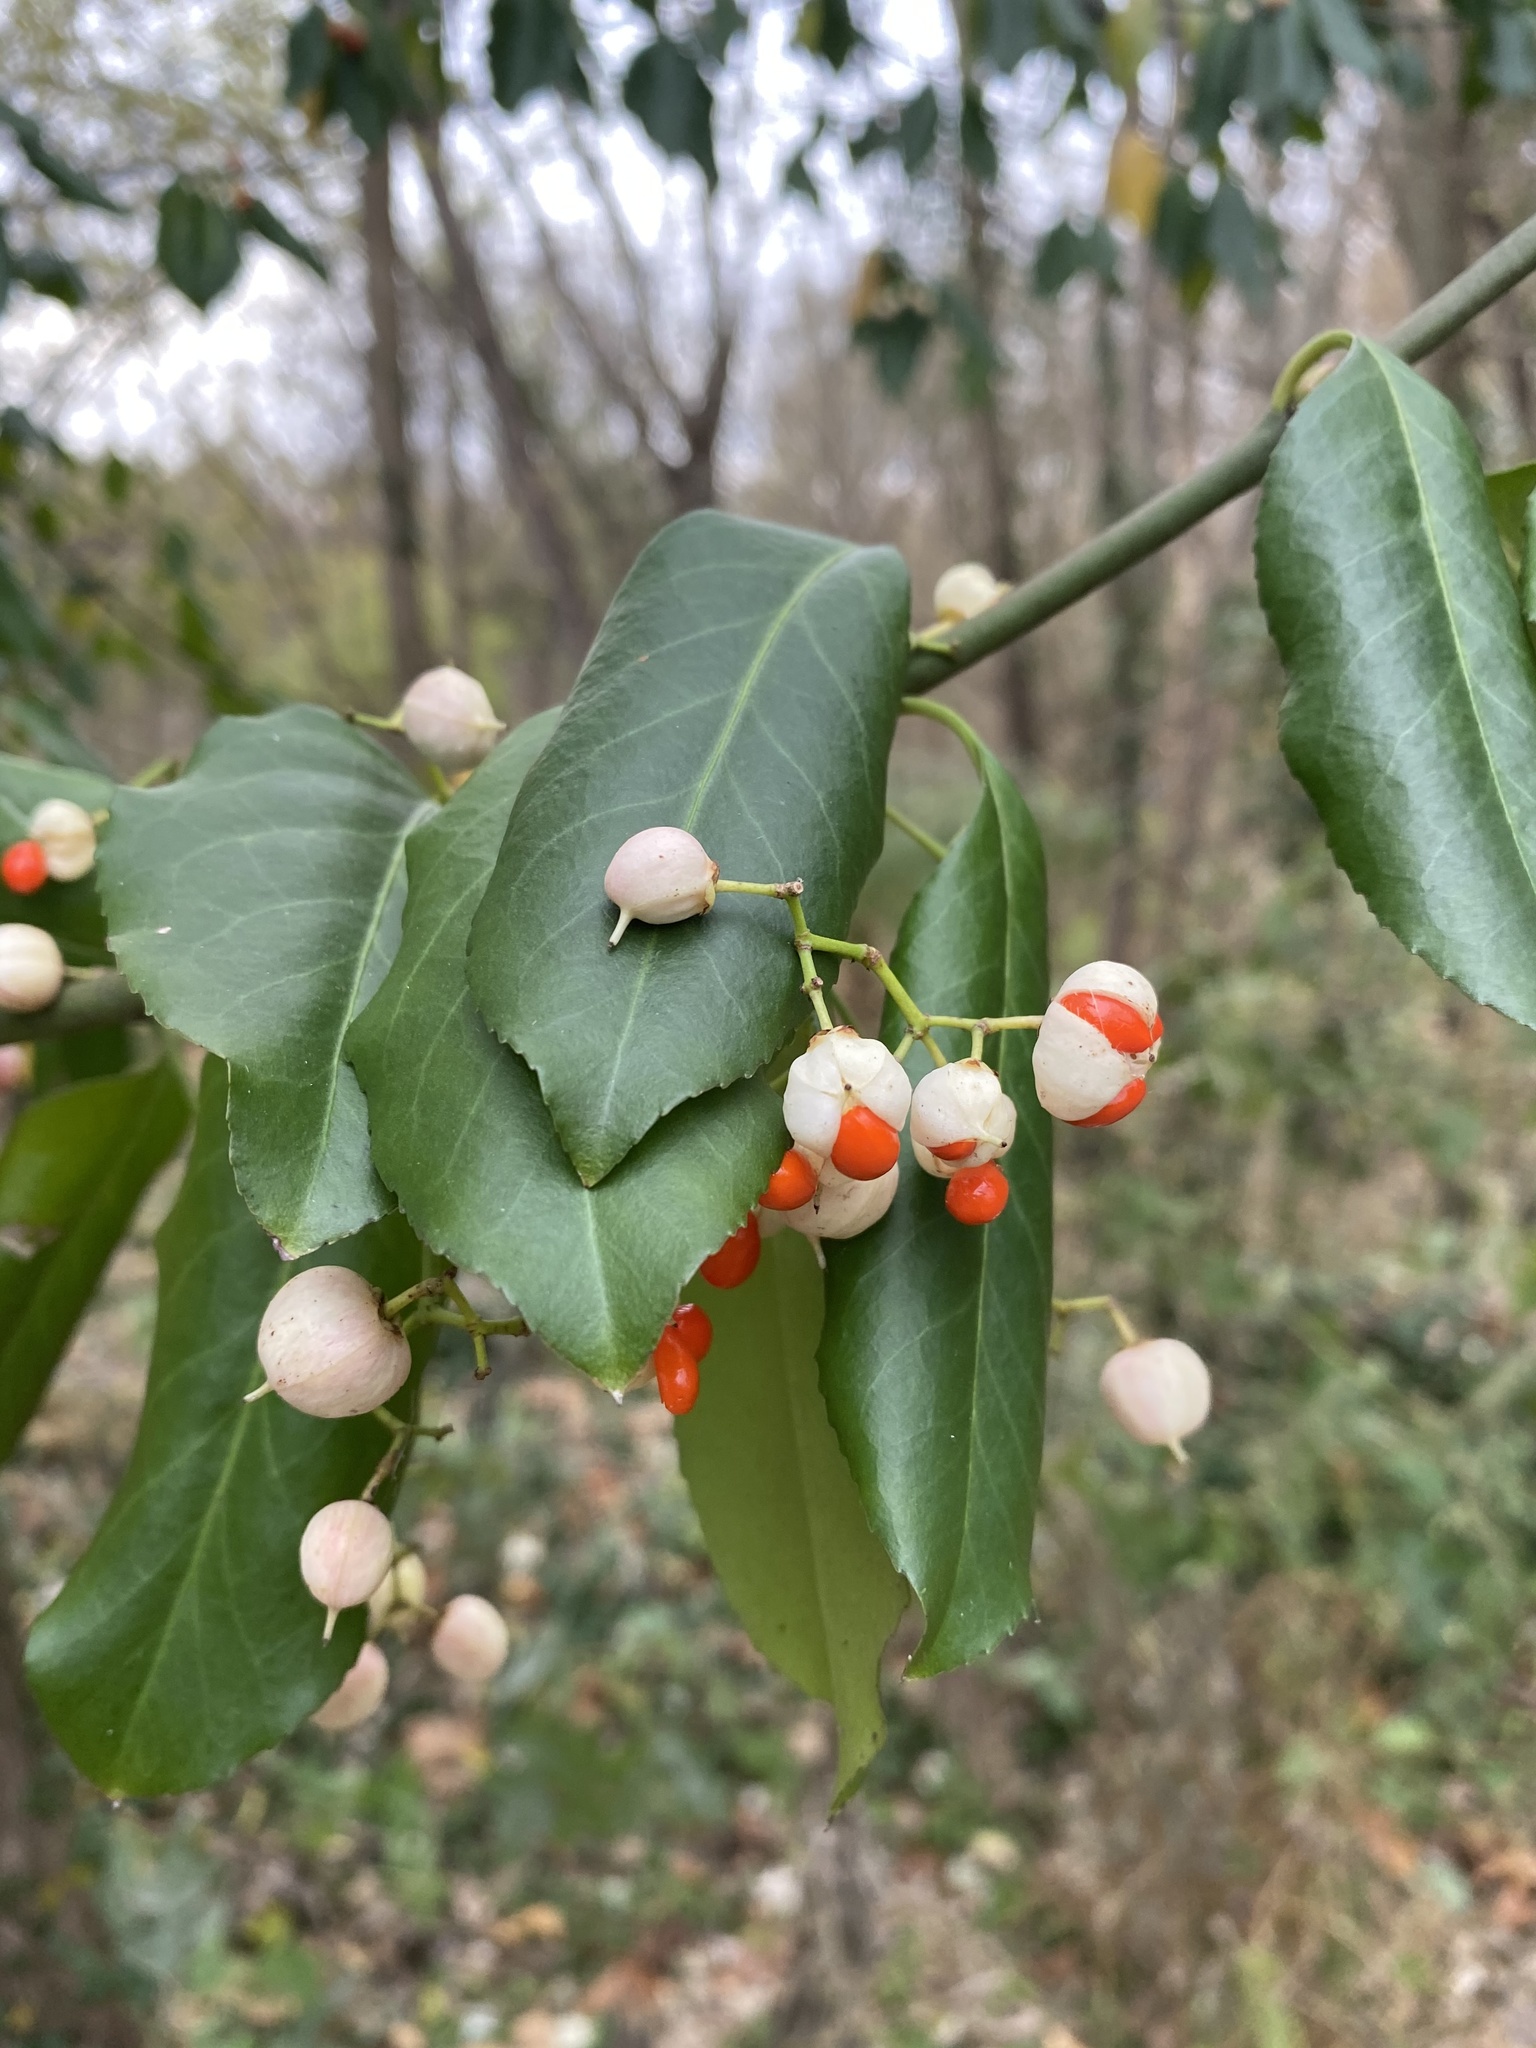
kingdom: Plantae
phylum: Tracheophyta
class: Magnoliopsida
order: Celastrales
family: Celastraceae
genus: Euonymus
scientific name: Euonymus fortunei
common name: Climbing euonymus
